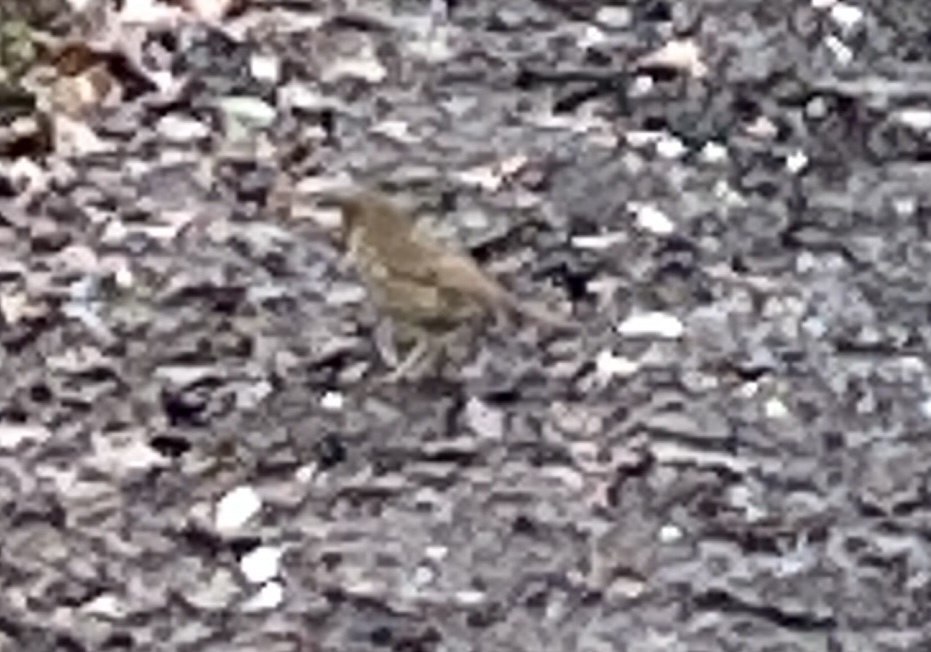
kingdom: Animalia
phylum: Chordata
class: Aves
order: Passeriformes
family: Turdidae
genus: Turdus
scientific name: Turdus philomelos
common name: Song thrush
